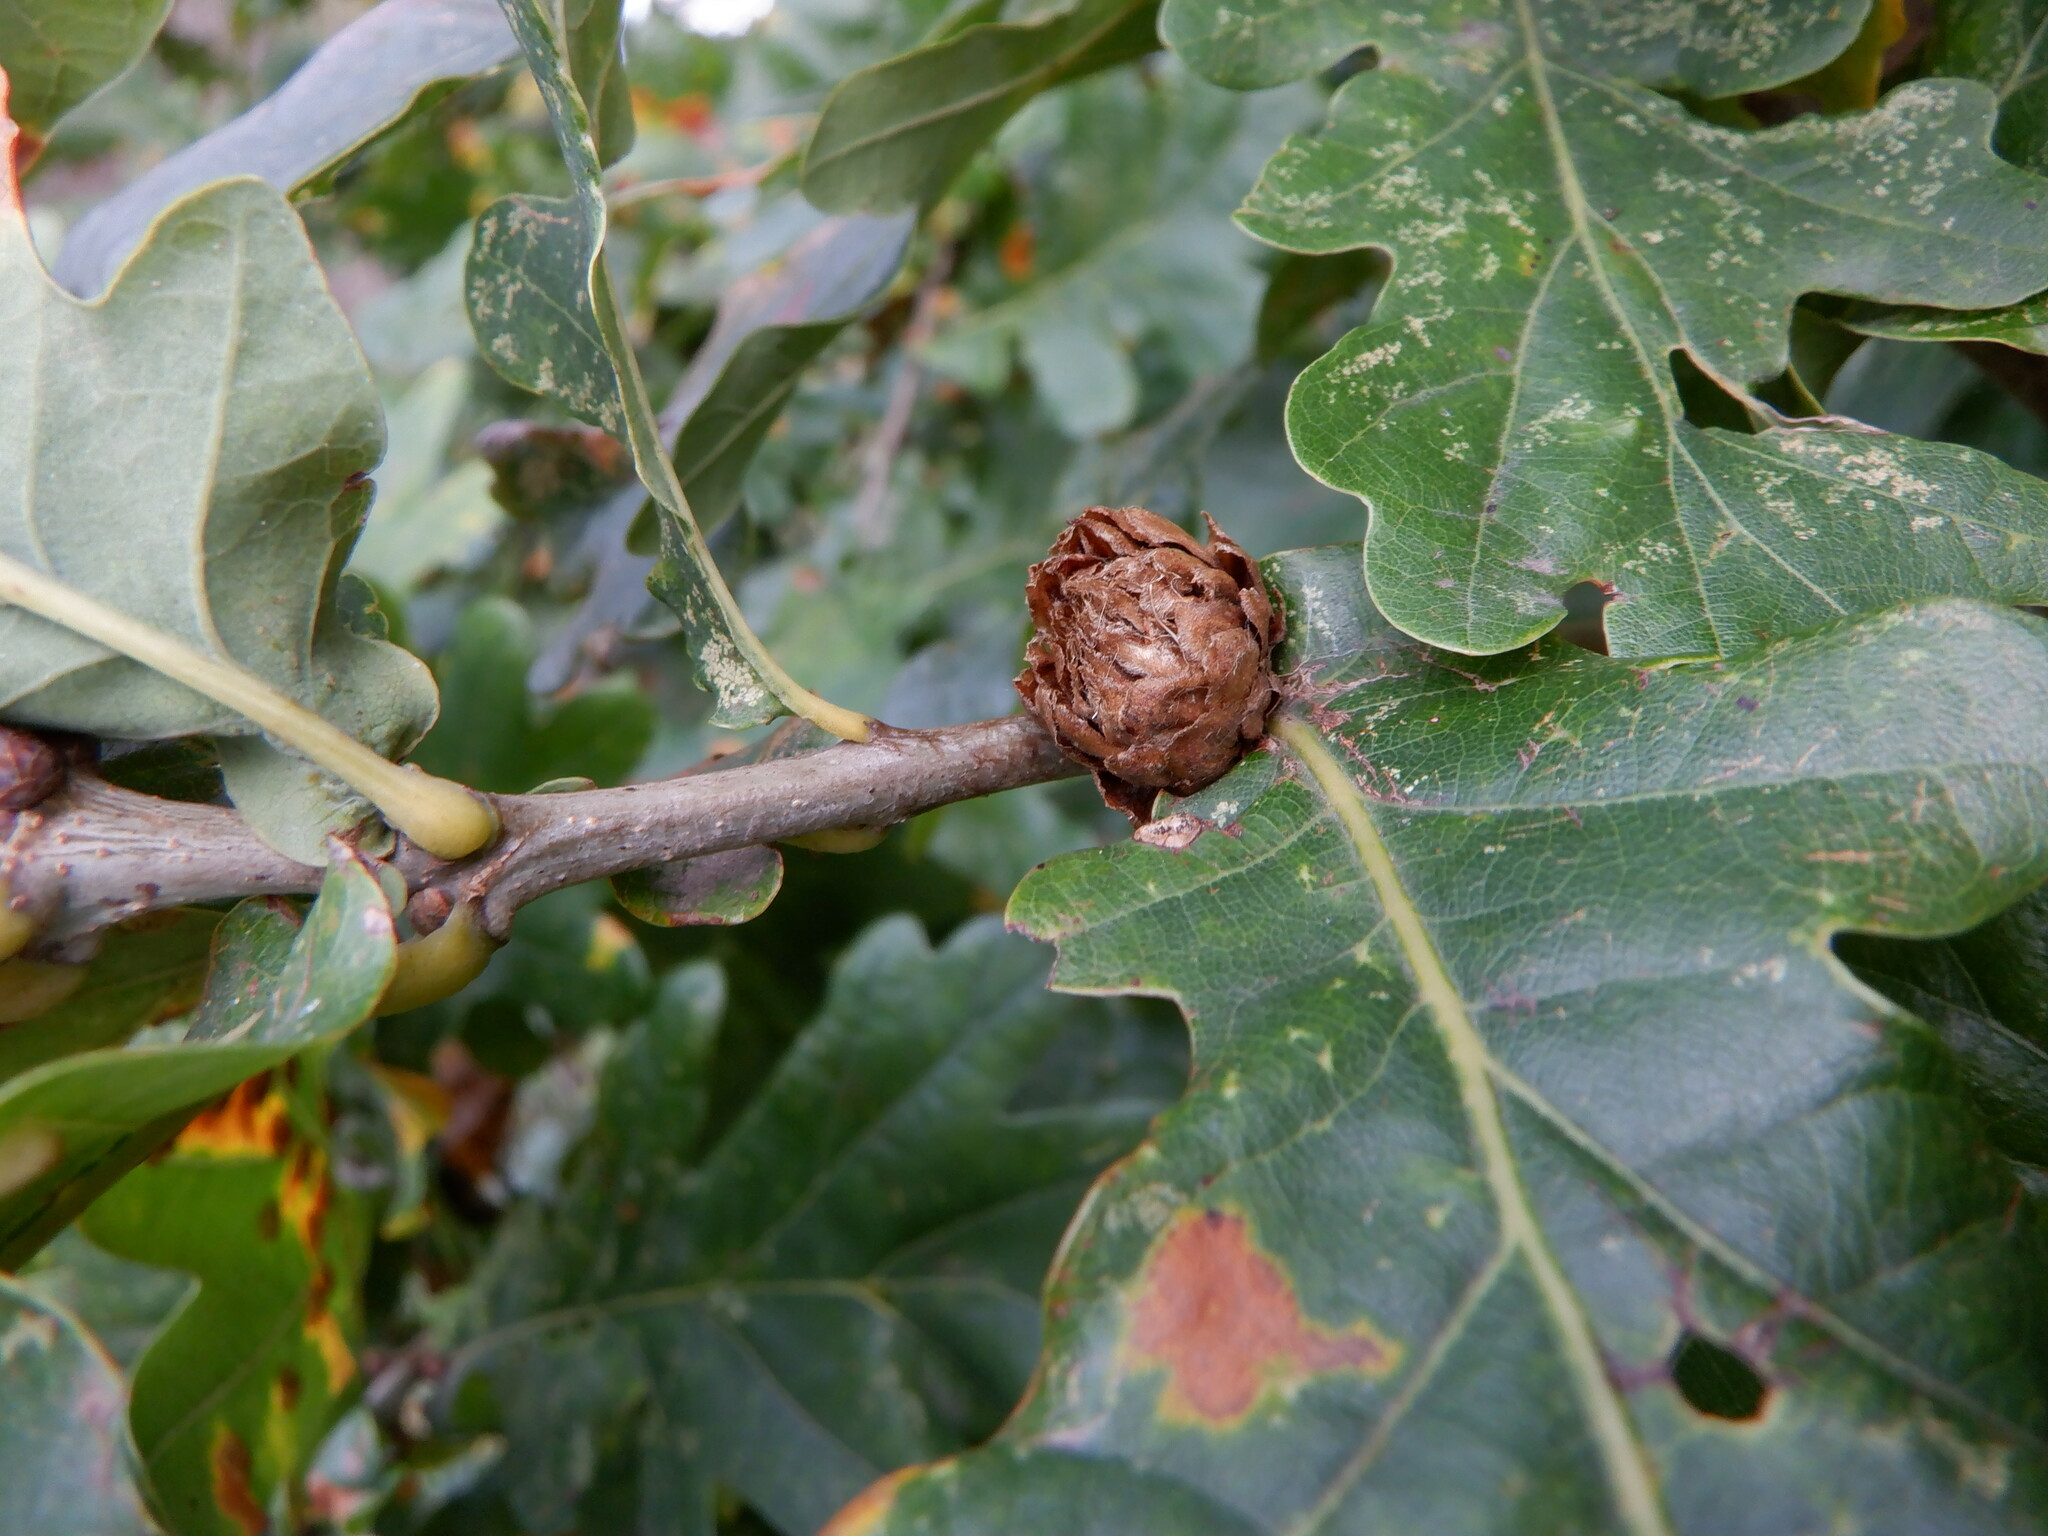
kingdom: Animalia
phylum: Arthropoda
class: Insecta
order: Hymenoptera
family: Cynipidae
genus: Andricus
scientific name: Andricus foecundatrix
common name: Artichoke gall
